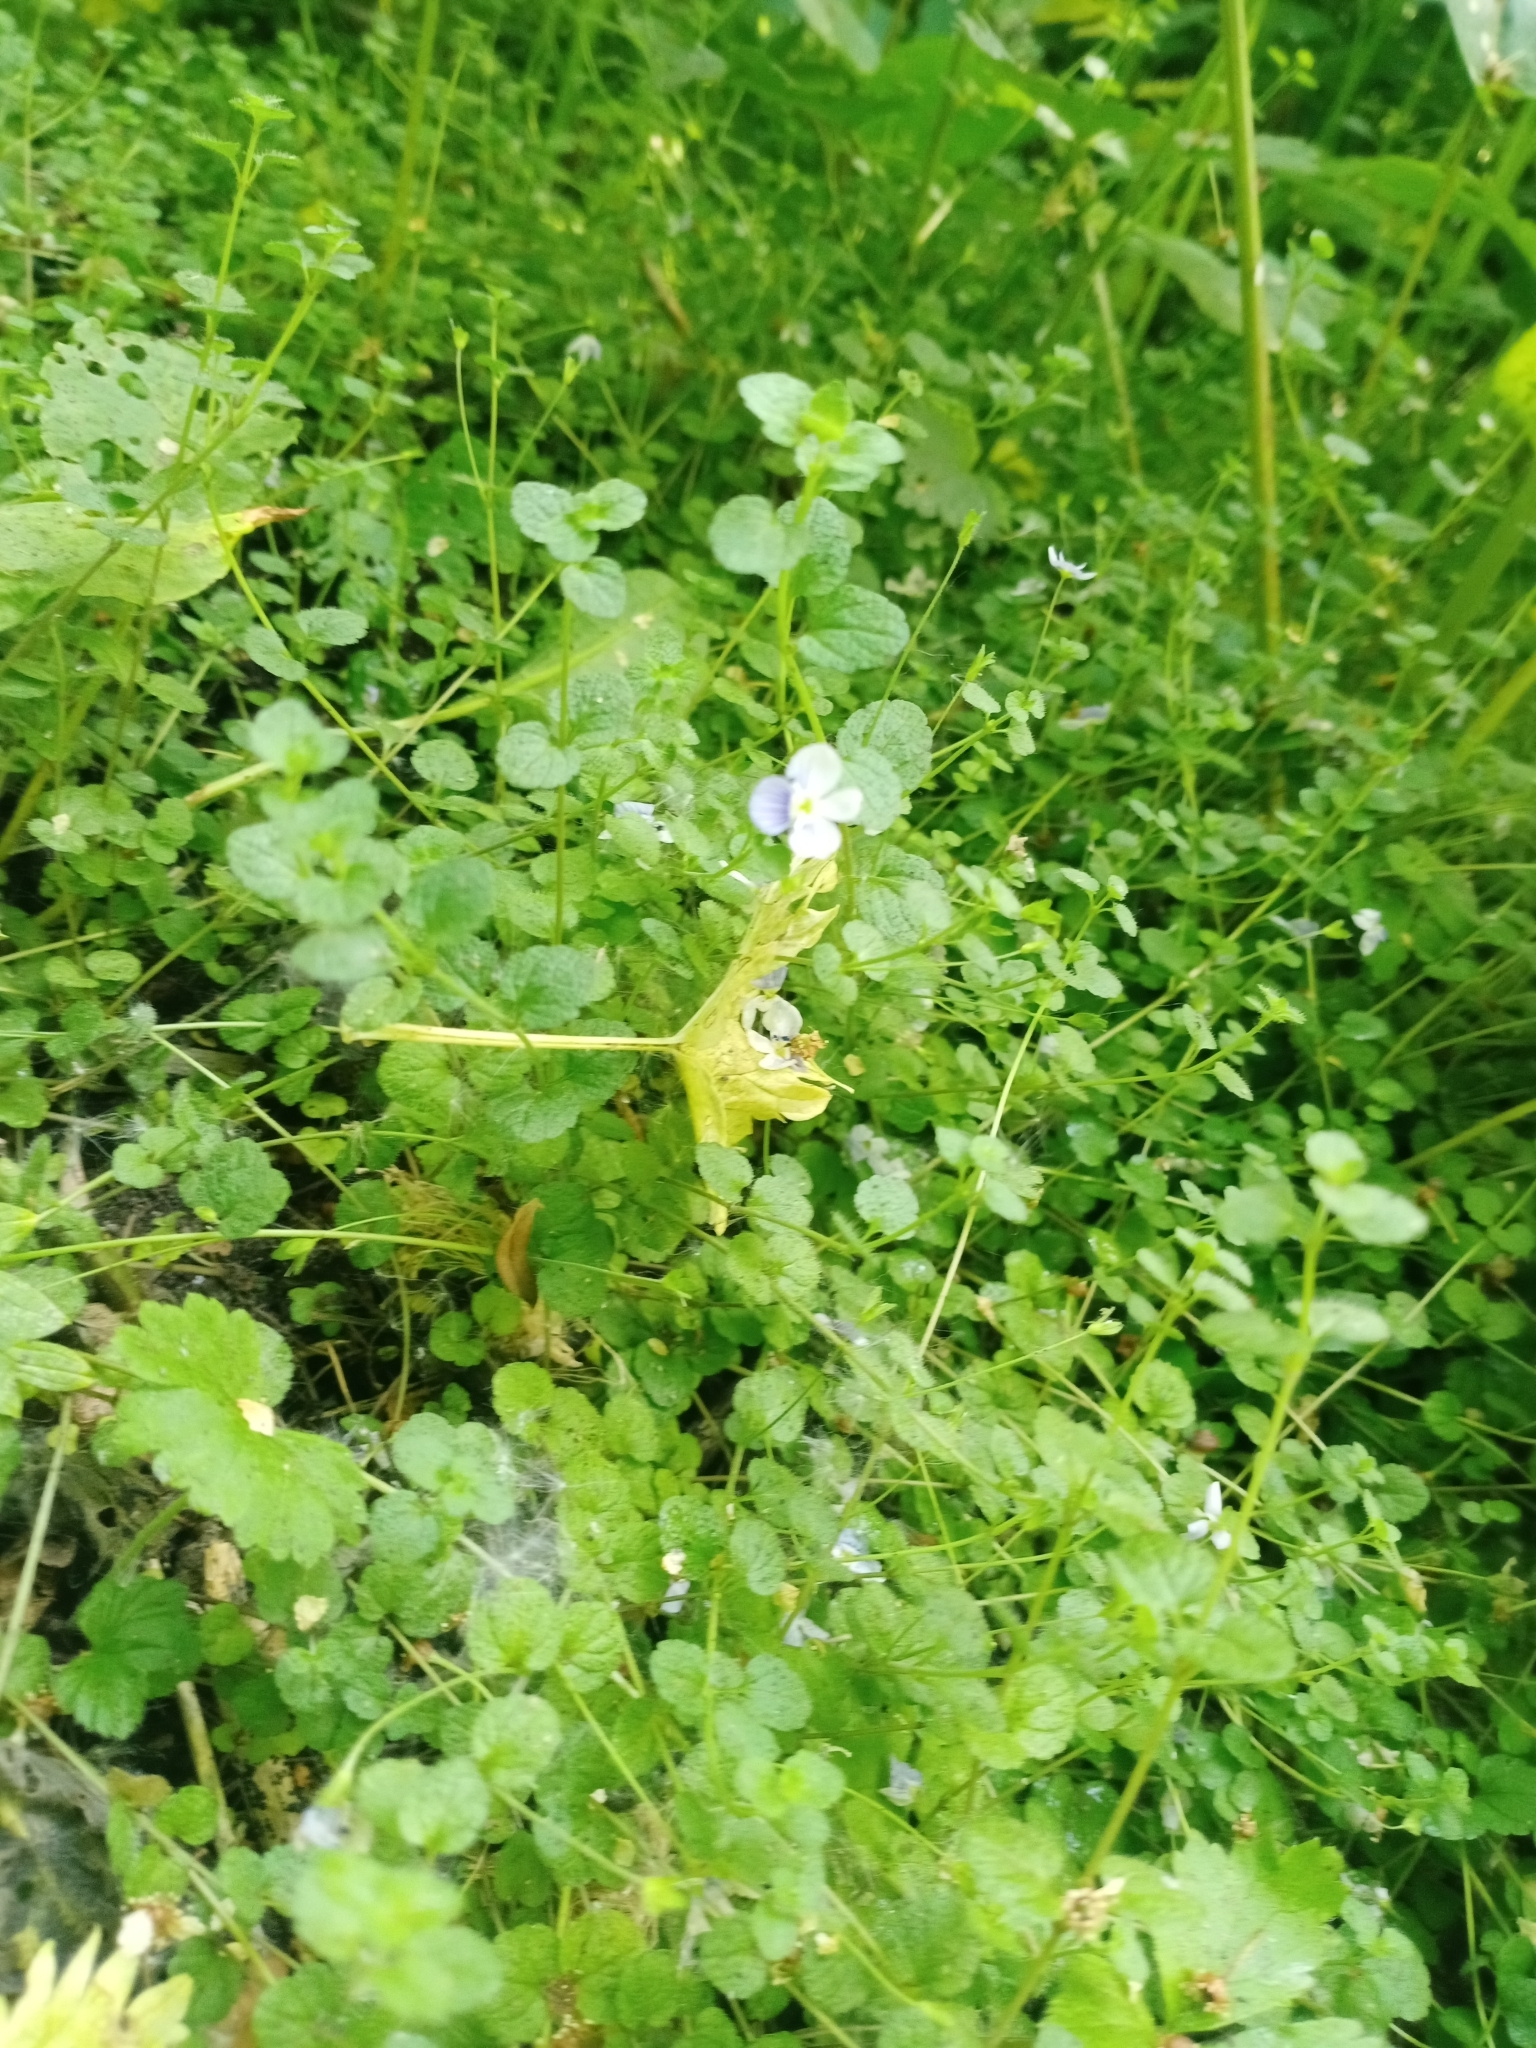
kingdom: Plantae
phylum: Tracheophyta
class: Magnoliopsida
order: Lamiales
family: Plantaginaceae
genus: Veronica
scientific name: Veronica filiformis
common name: Slender speedwell
